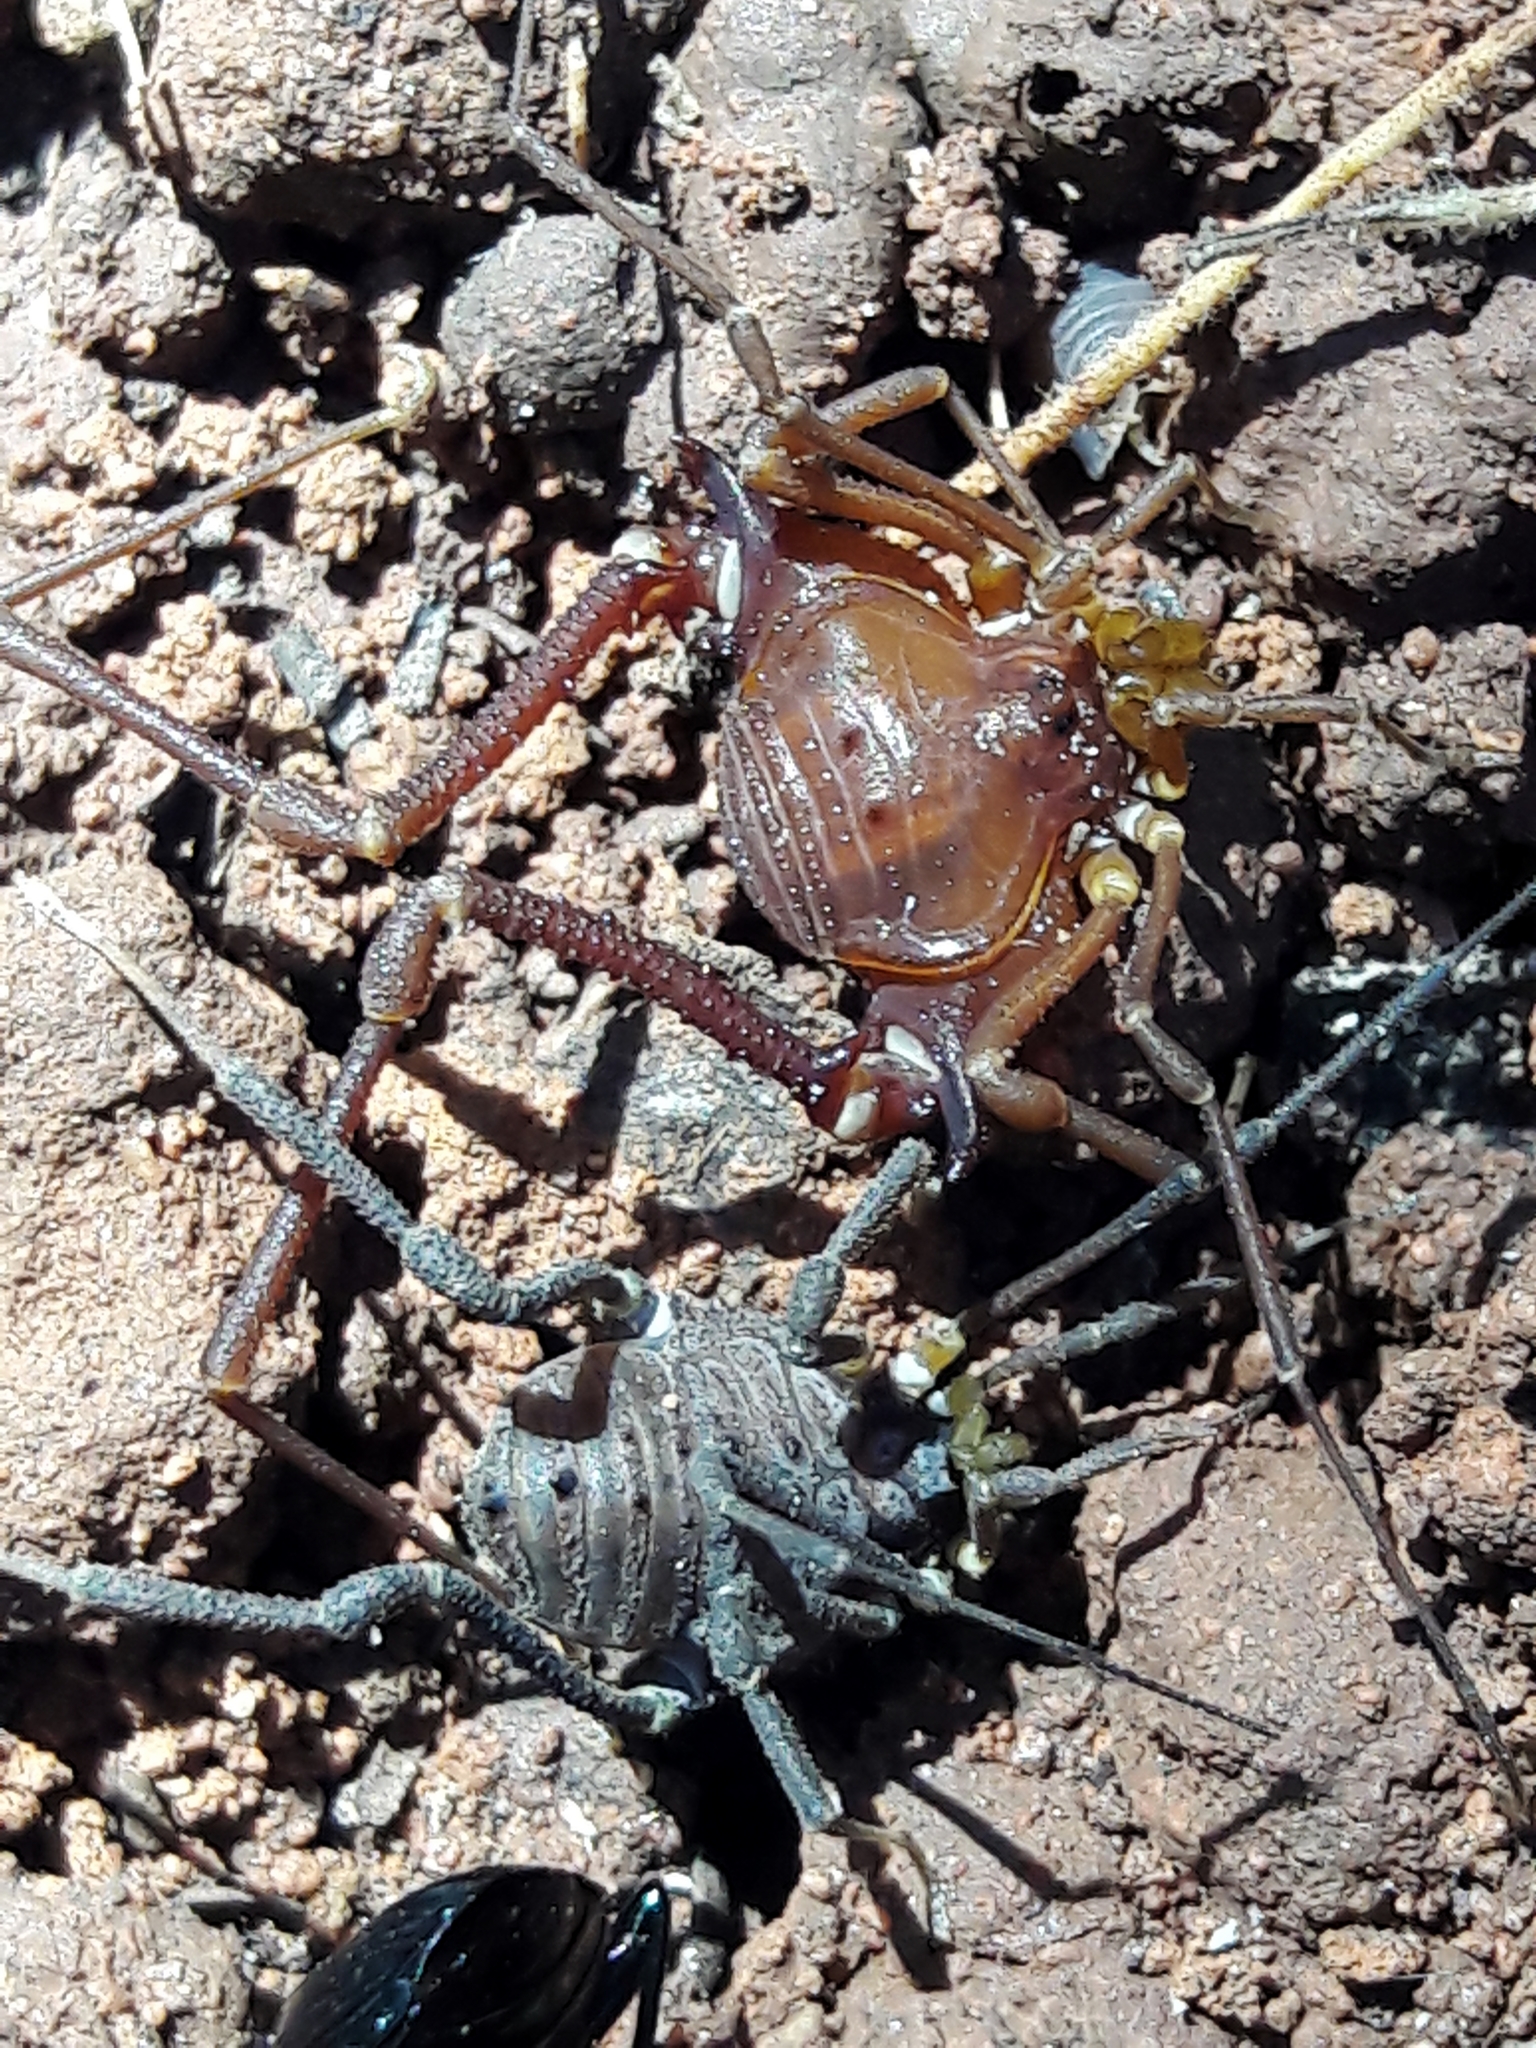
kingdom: Animalia
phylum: Arthropoda
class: Arachnida
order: Opiliones
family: Gonyleptidae
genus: Mischonyx
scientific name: Mischonyx squalidus
